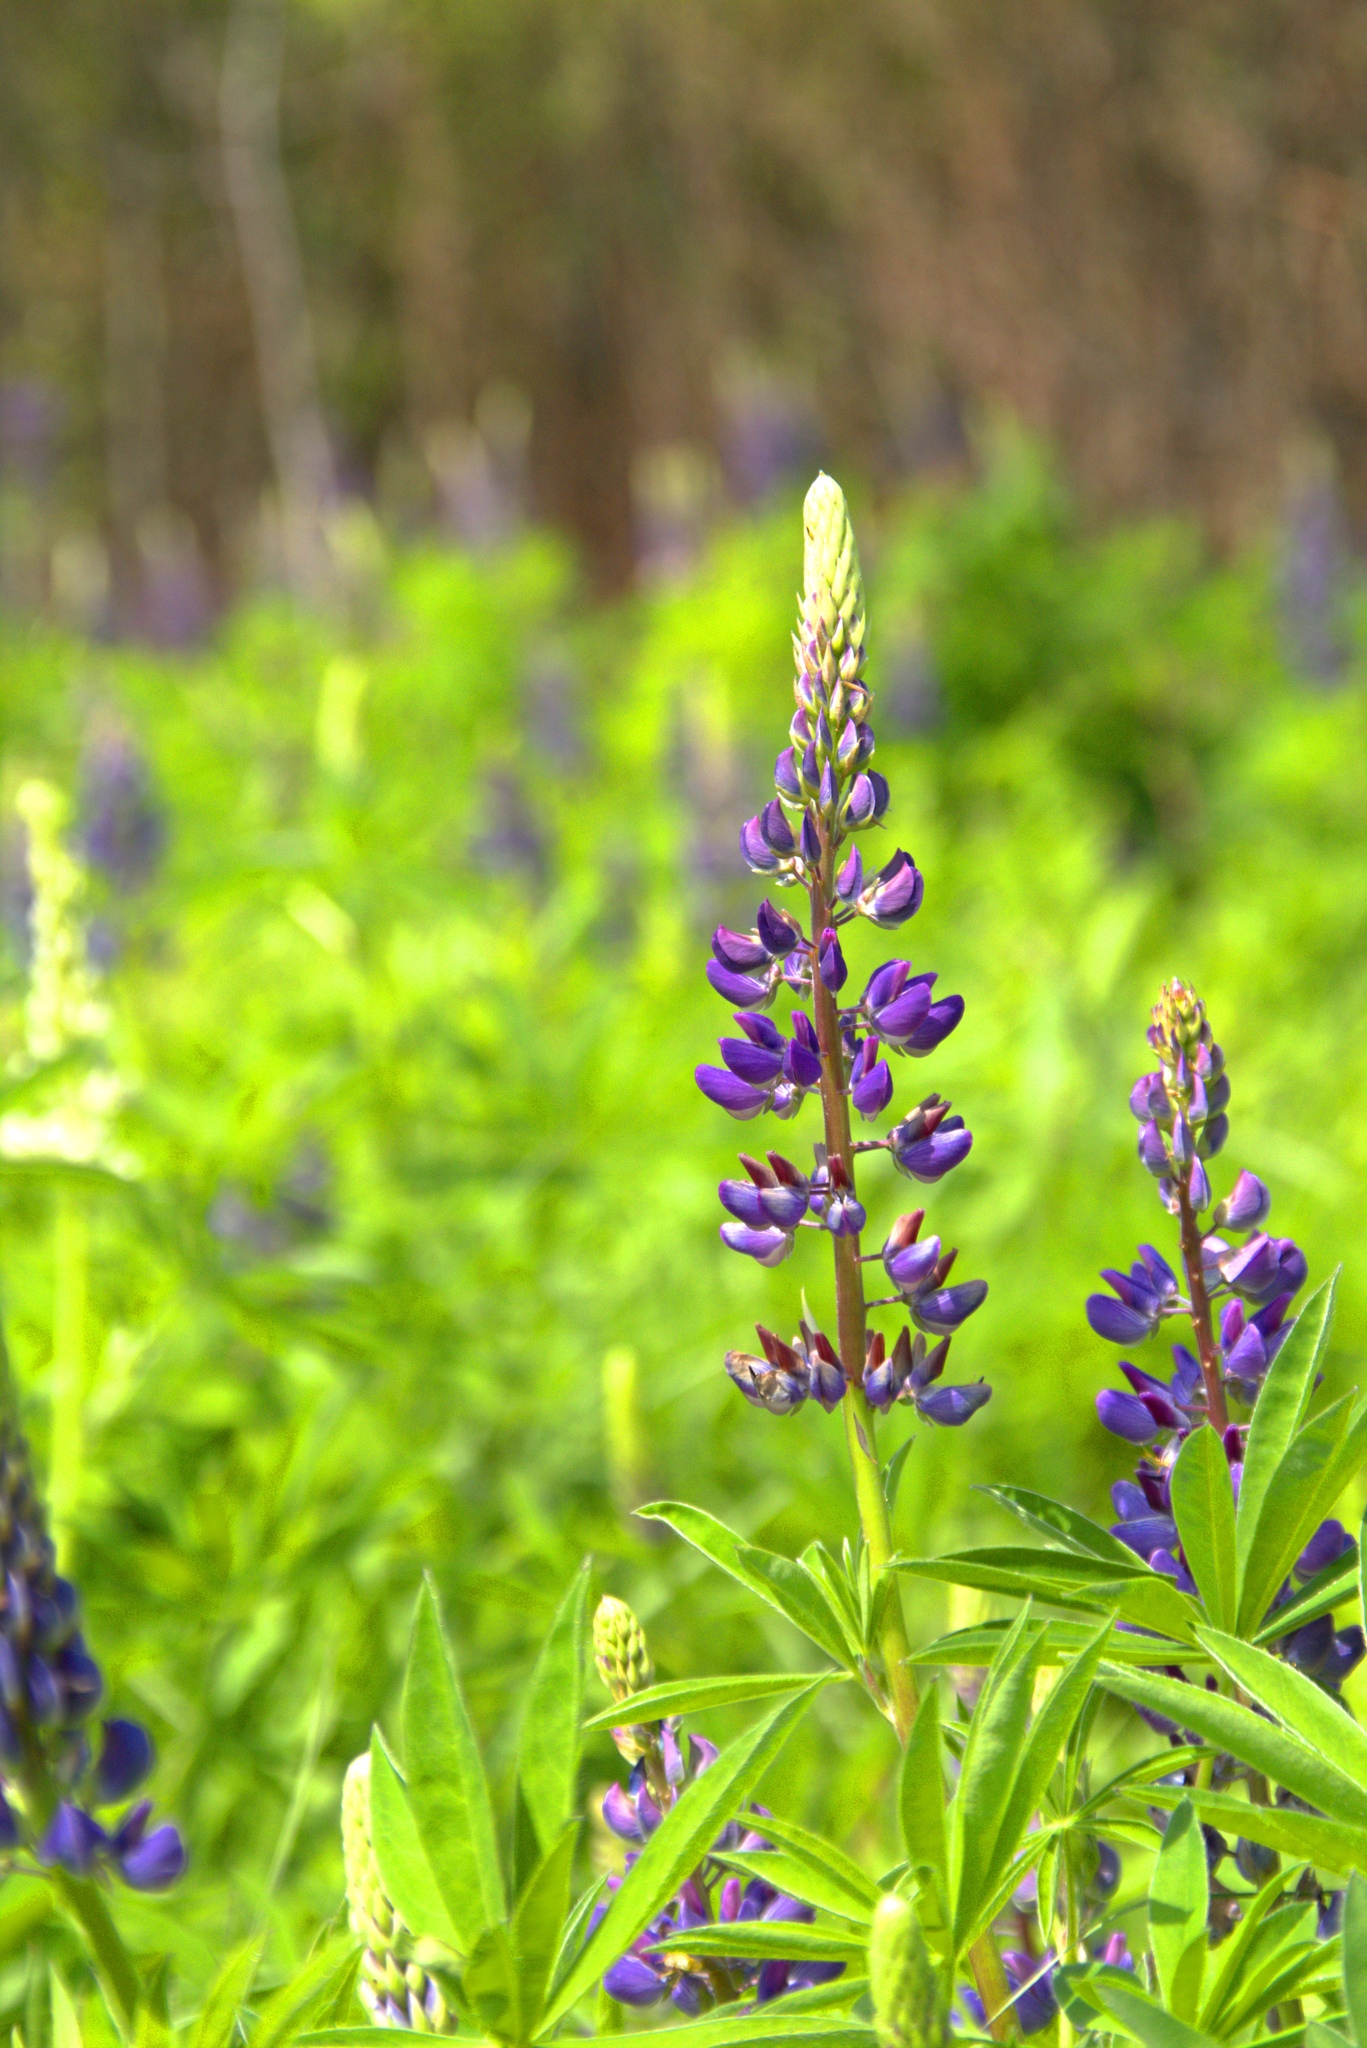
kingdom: Plantae
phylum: Tracheophyta
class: Magnoliopsida
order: Fabales
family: Fabaceae
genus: Lupinus
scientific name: Lupinus polyphyllus
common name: Garden lupin
